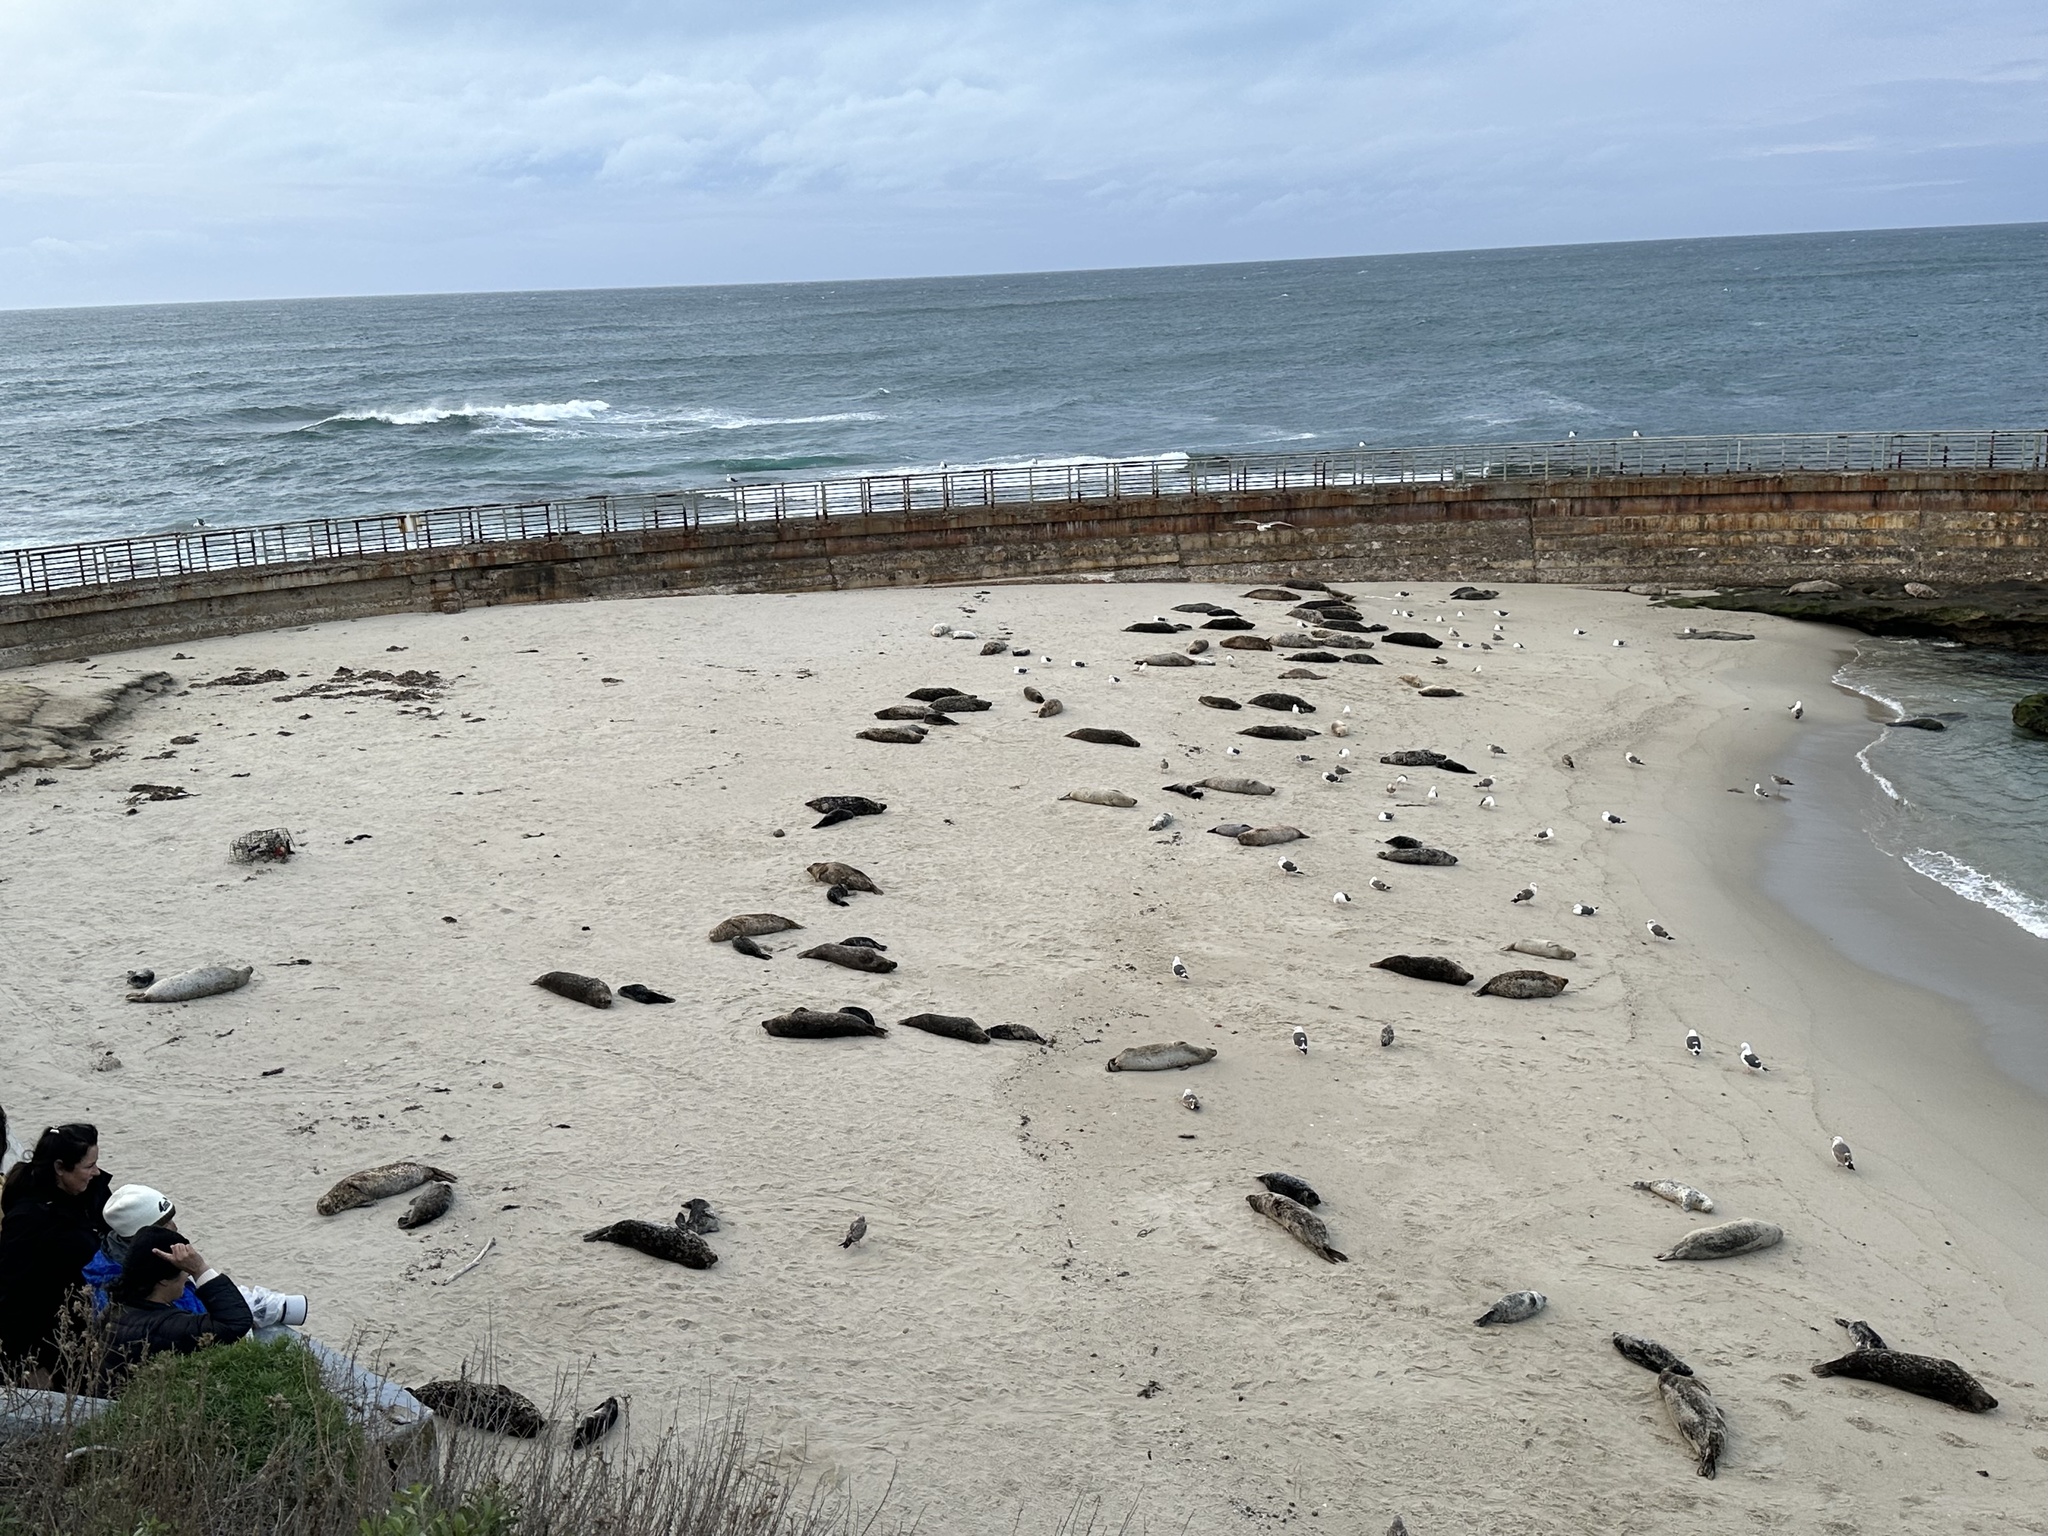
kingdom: Animalia
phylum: Chordata
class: Mammalia
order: Carnivora
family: Phocidae
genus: Phoca
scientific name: Phoca vitulina
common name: Harbor seal
